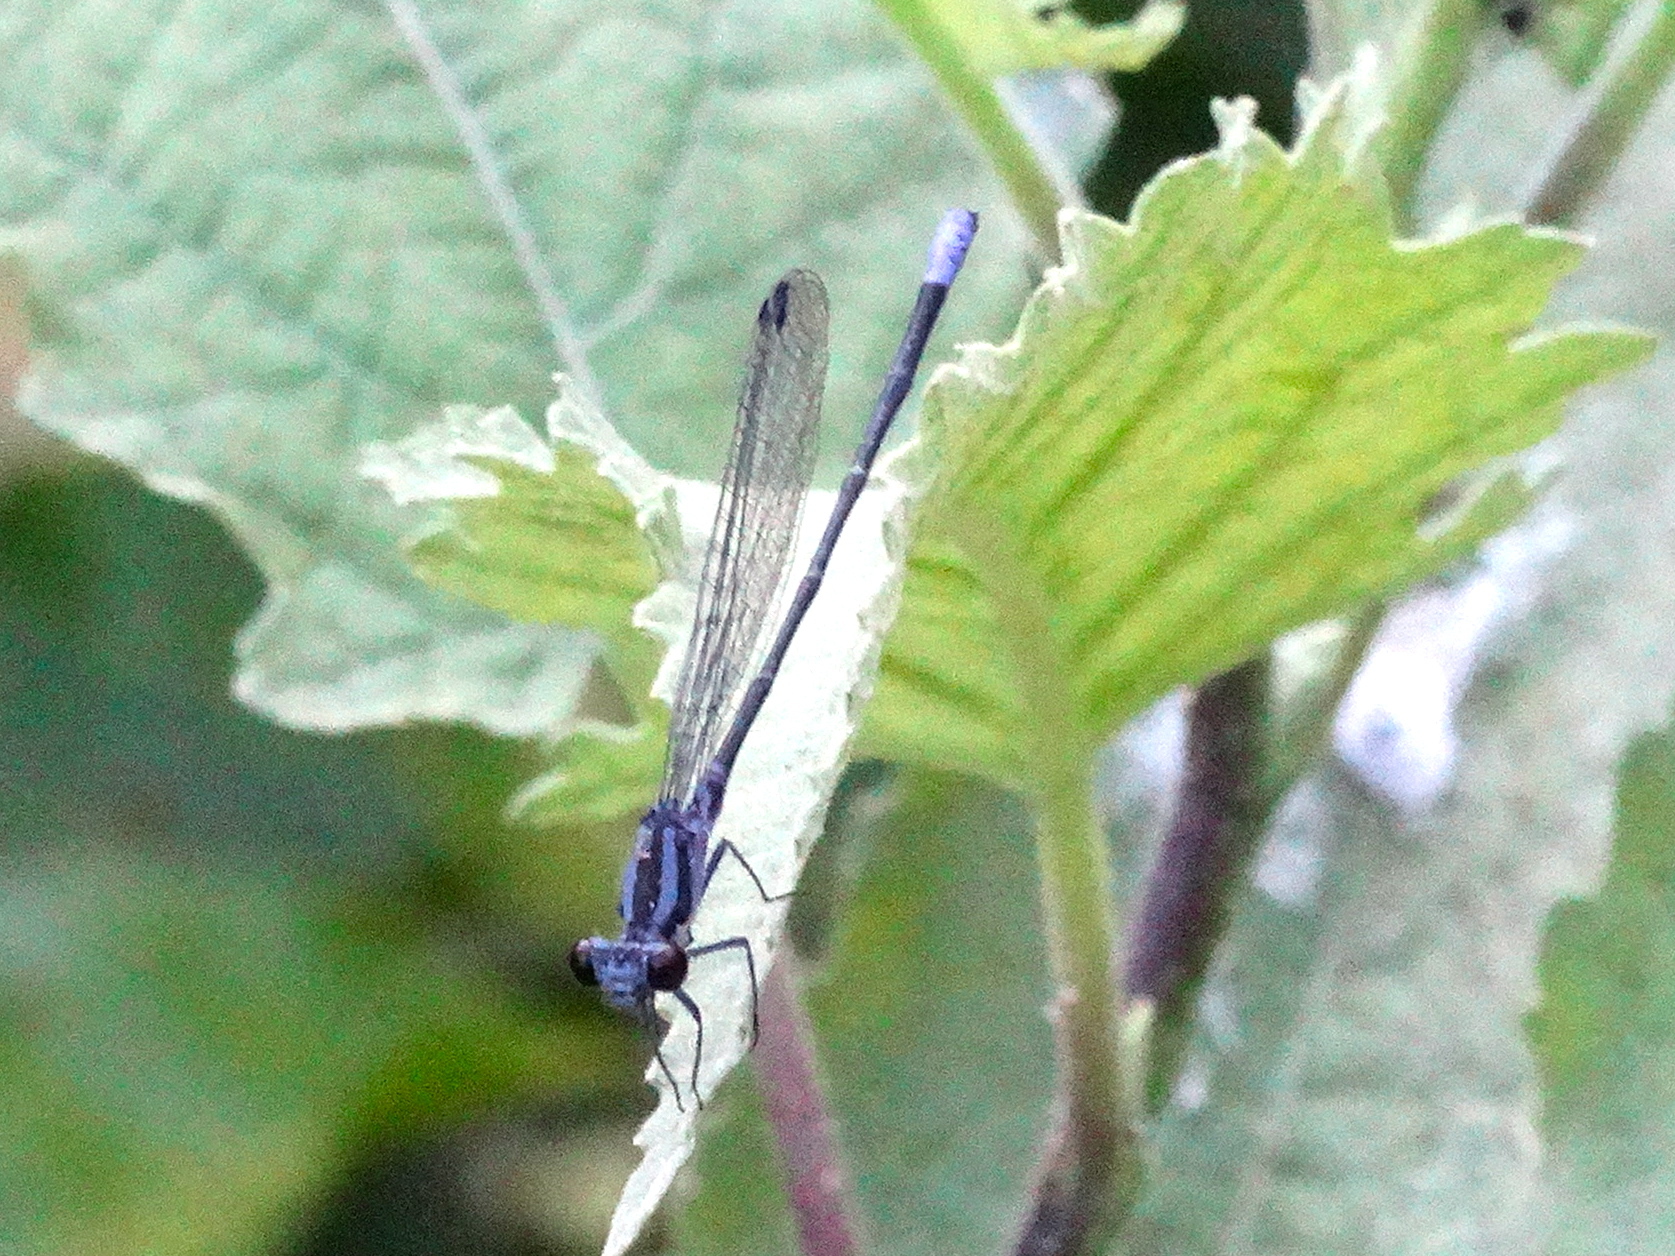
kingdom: Animalia
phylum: Arthropoda
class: Insecta
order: Odonata
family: Coenagrionidae
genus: Argia
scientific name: Argia pulla
